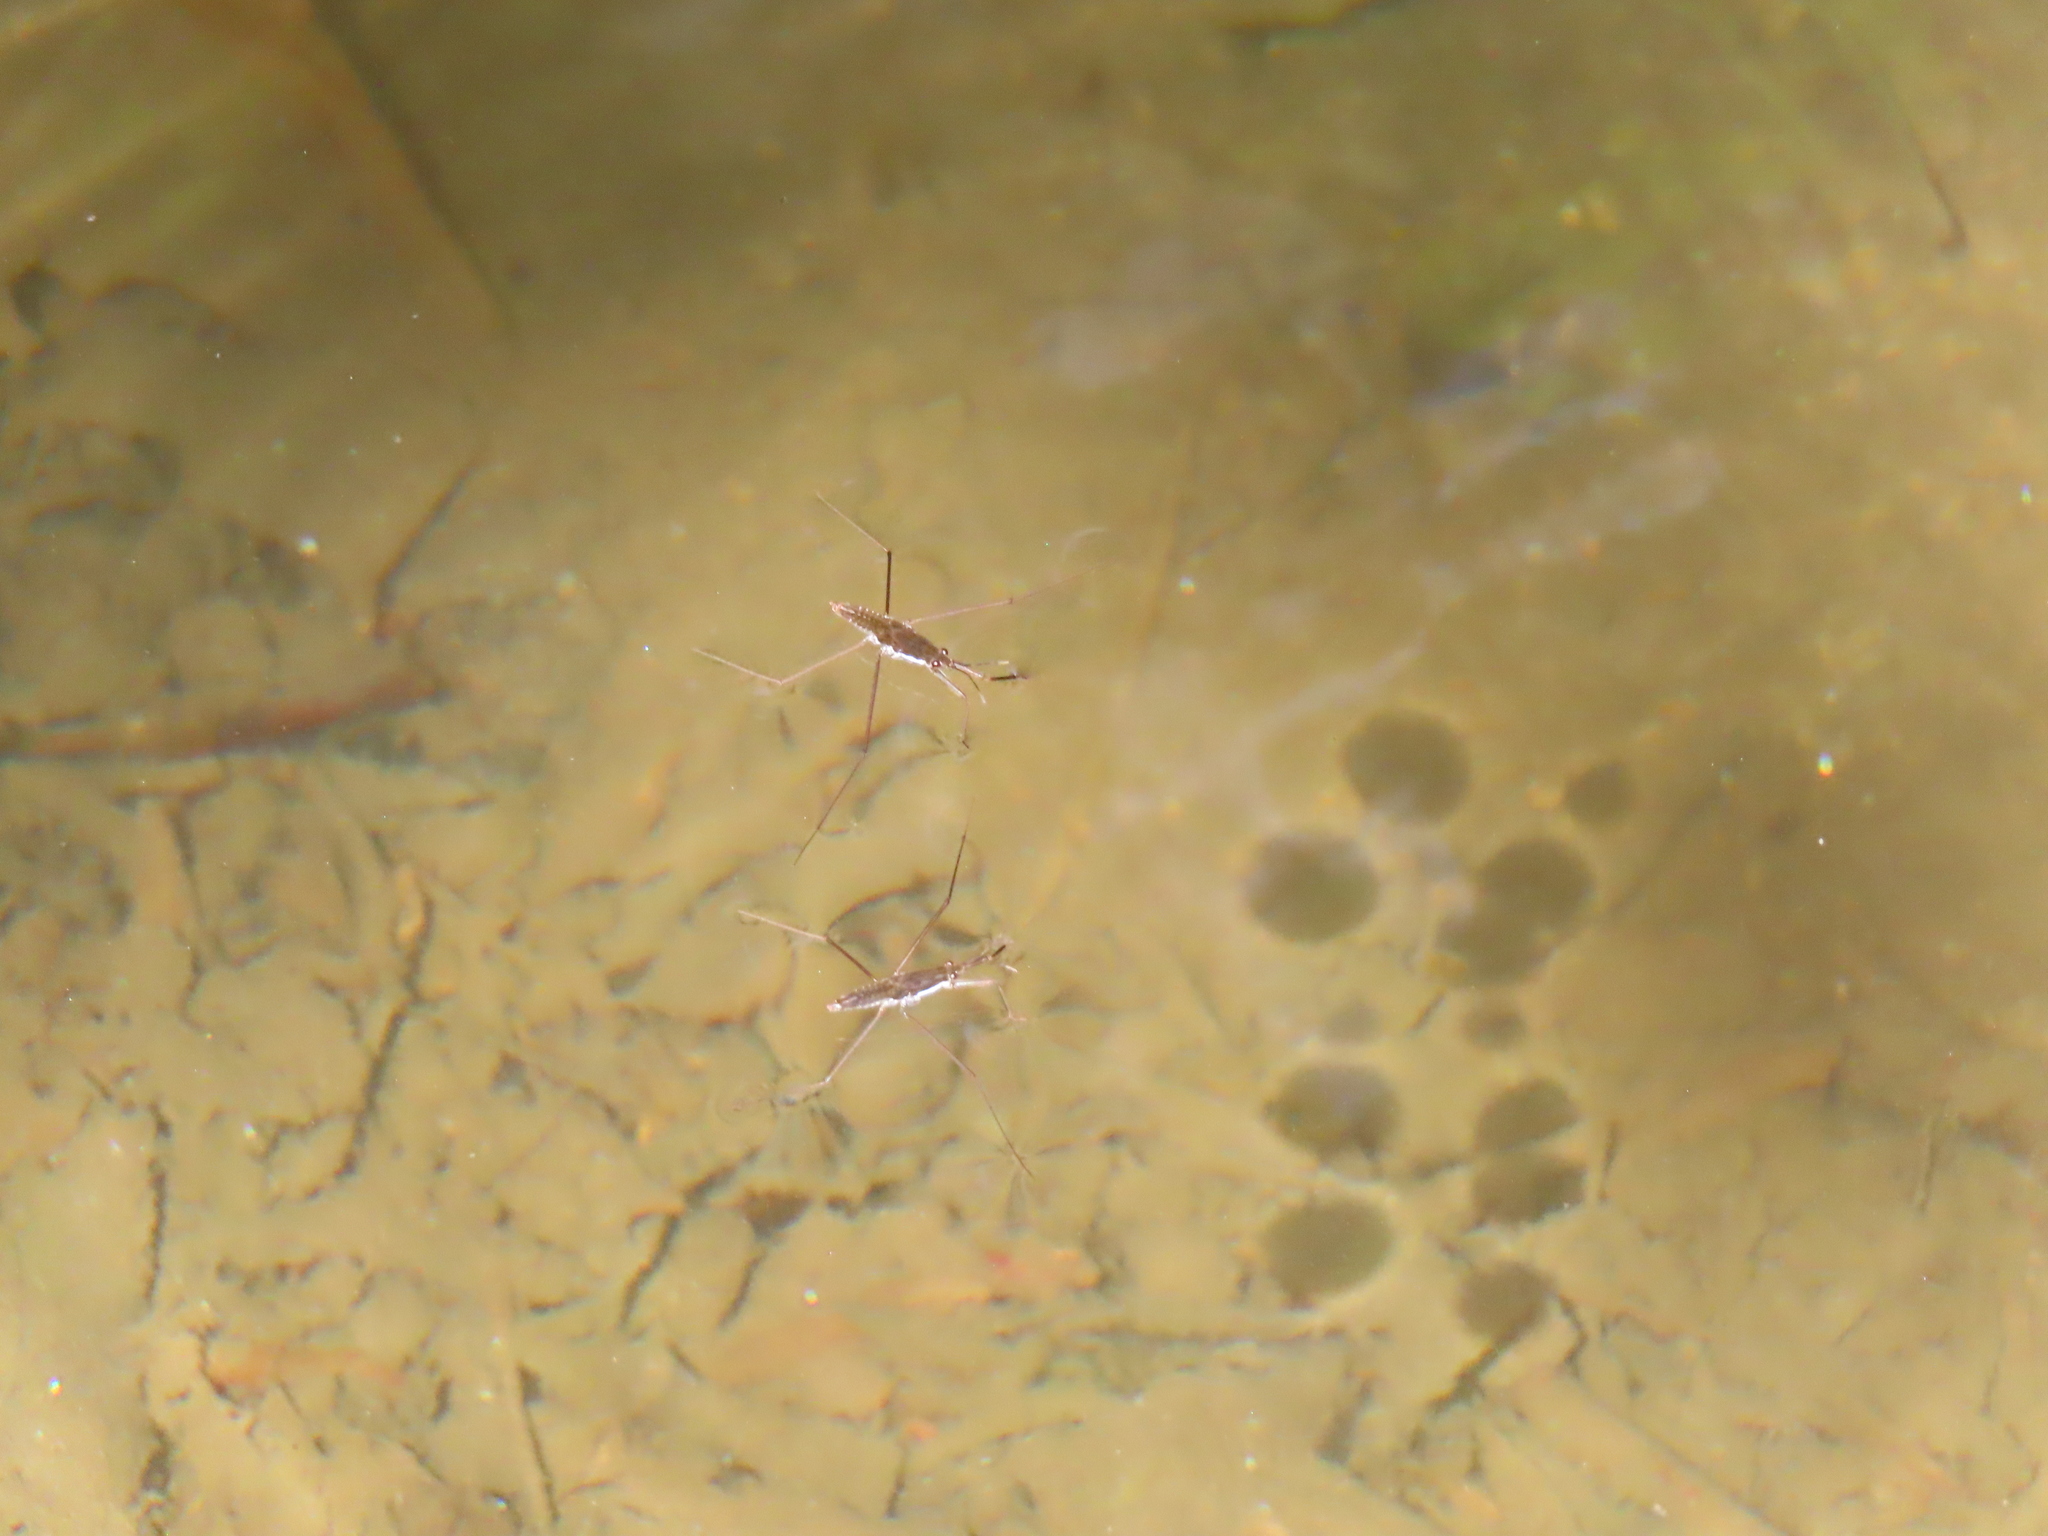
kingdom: Animalia
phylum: Arthropoda
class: Insecta
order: Hemiptera
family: Gerridae
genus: Aquarius
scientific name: Aquarius remigis
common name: Common water strider
